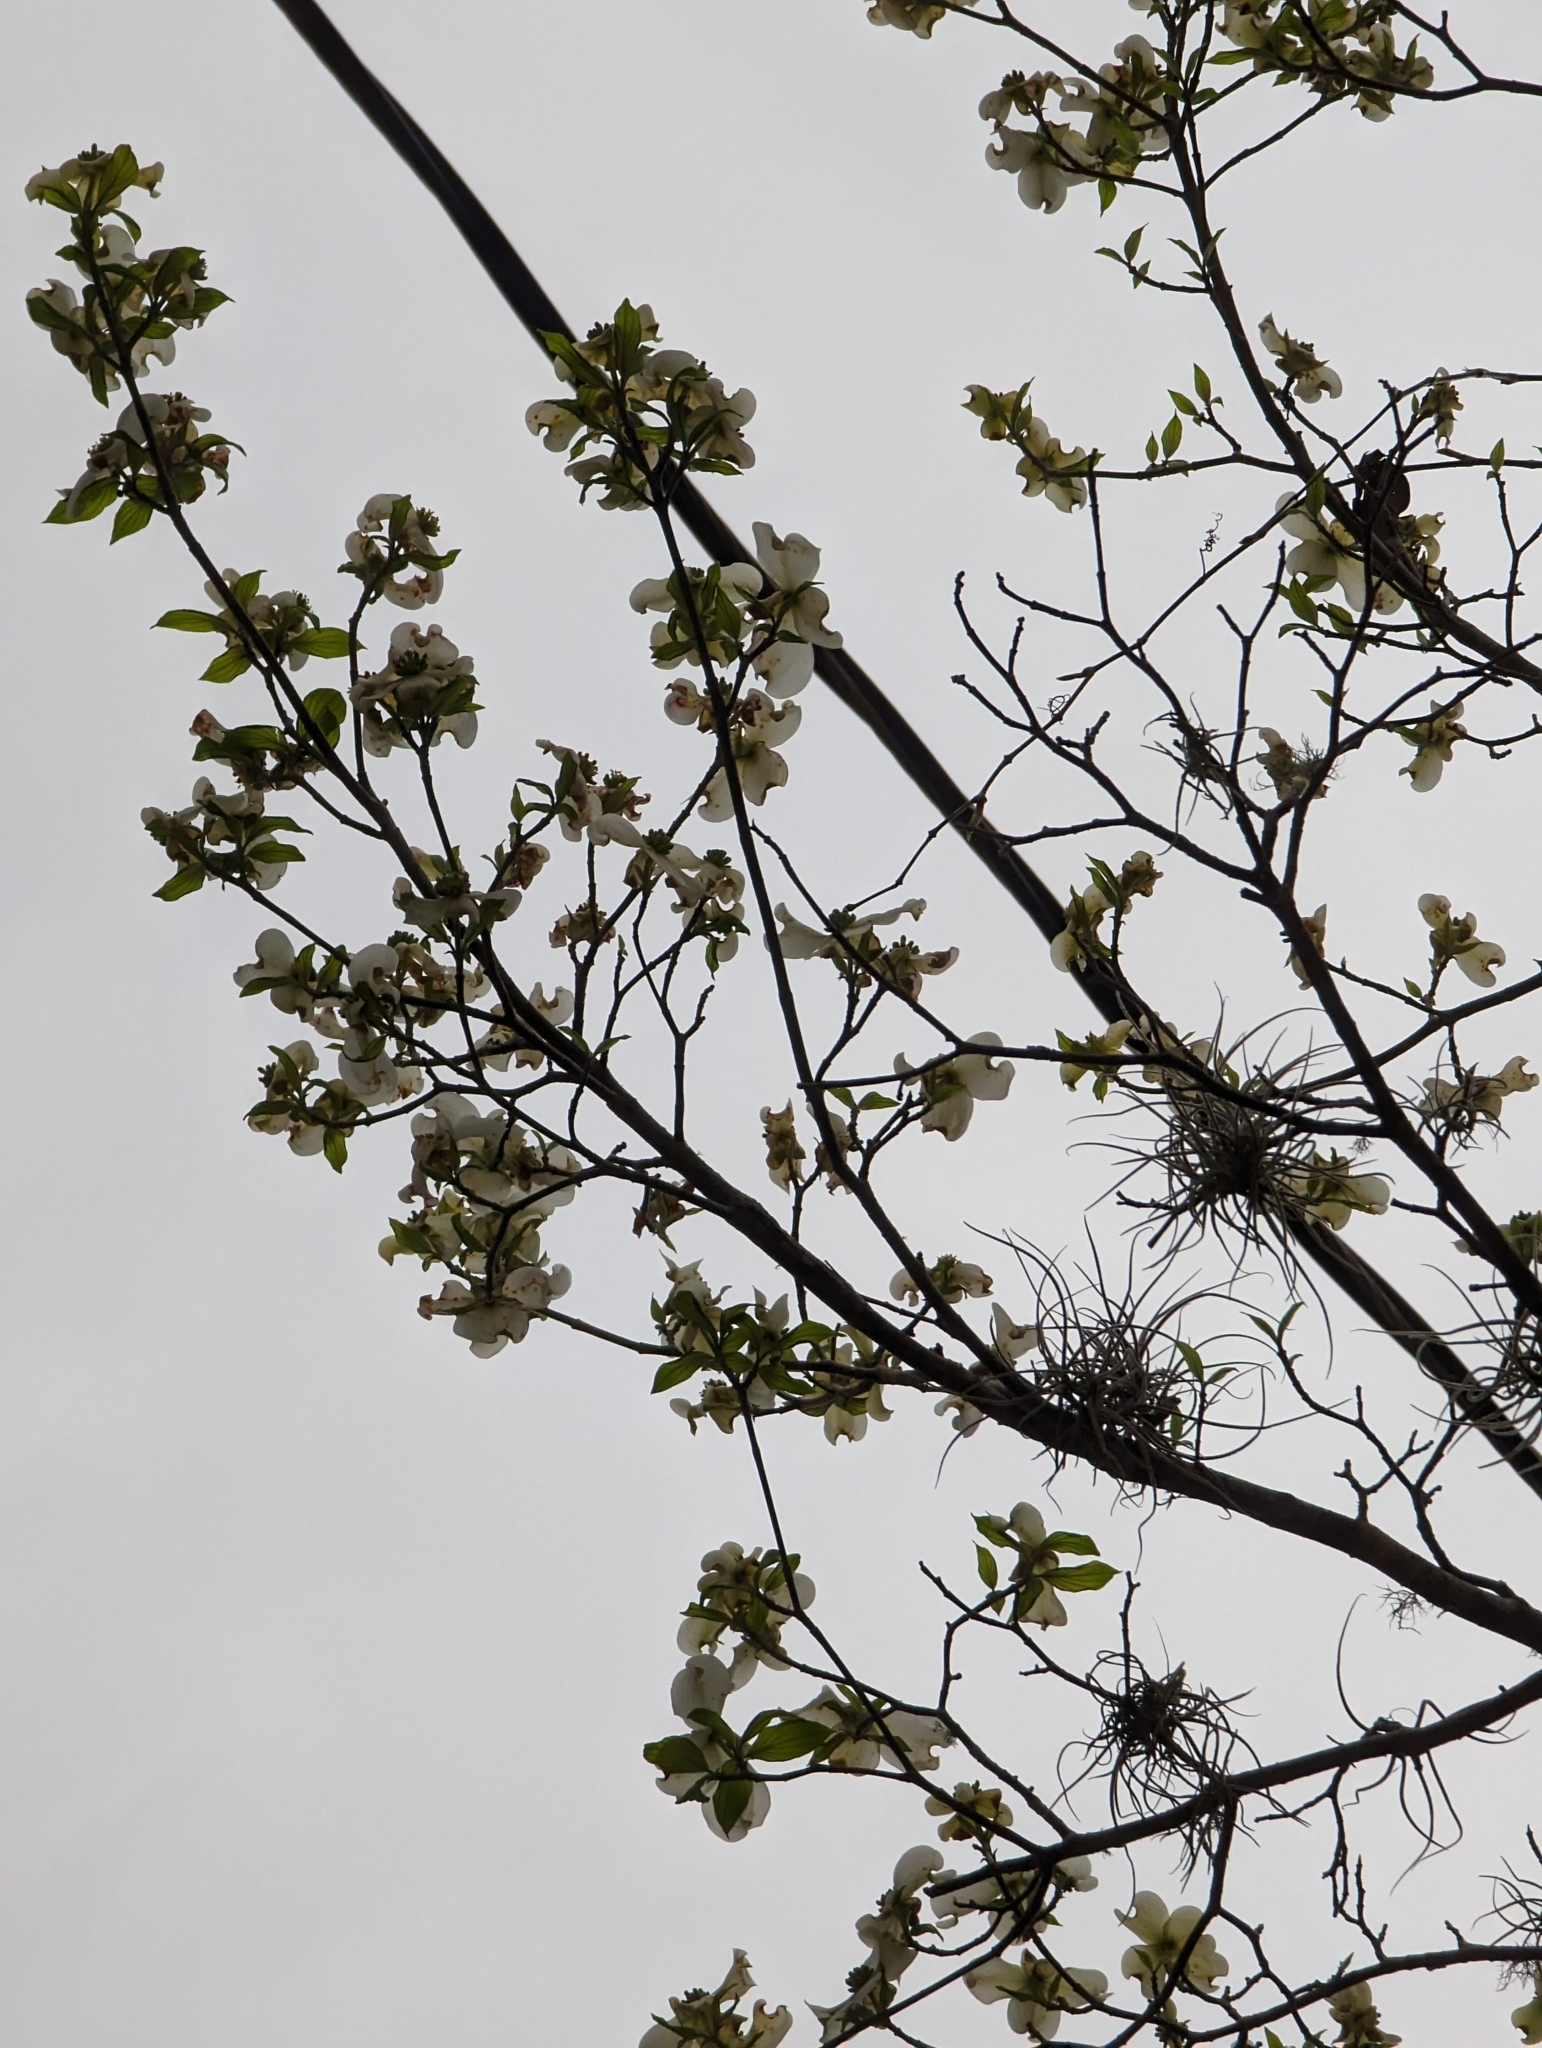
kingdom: Plantae
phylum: Tracheophyta
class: Magnoliopsida
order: Cornales
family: Cornaceae
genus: Cornus
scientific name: Cornus florida
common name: Flowering dogwood
